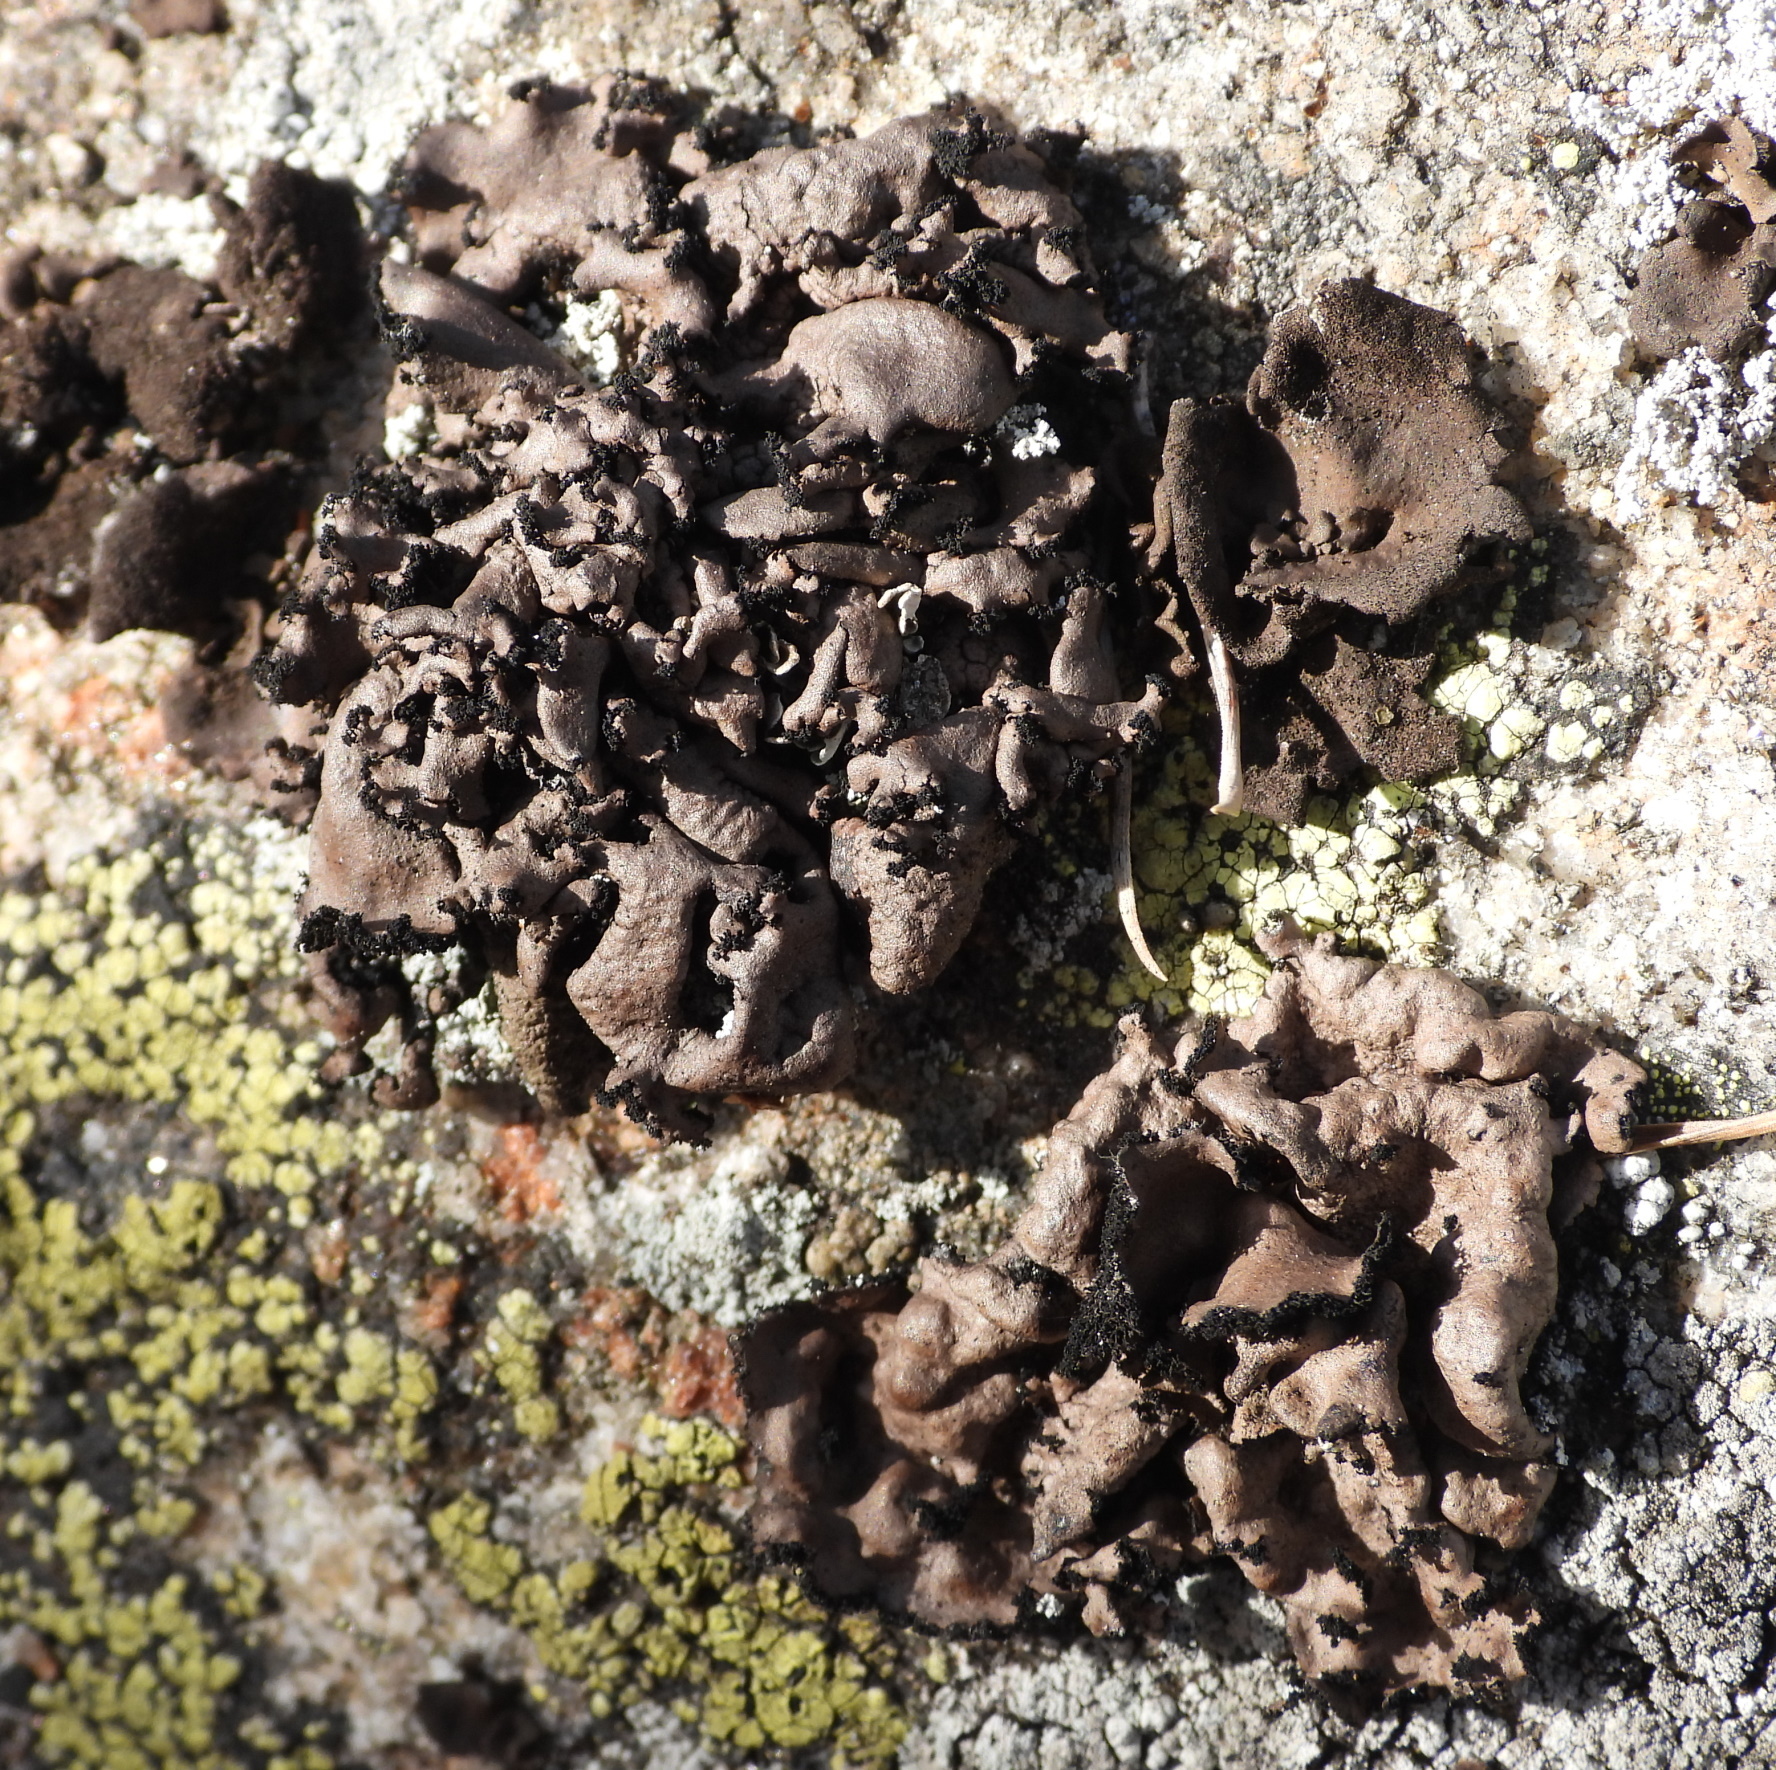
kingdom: Fungi
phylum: Ascomycota
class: Lecanoromycetes
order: Umbilicariales
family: Umbilicariaceae
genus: Umbilicaria
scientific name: Umbilicaria polyrrhiza
